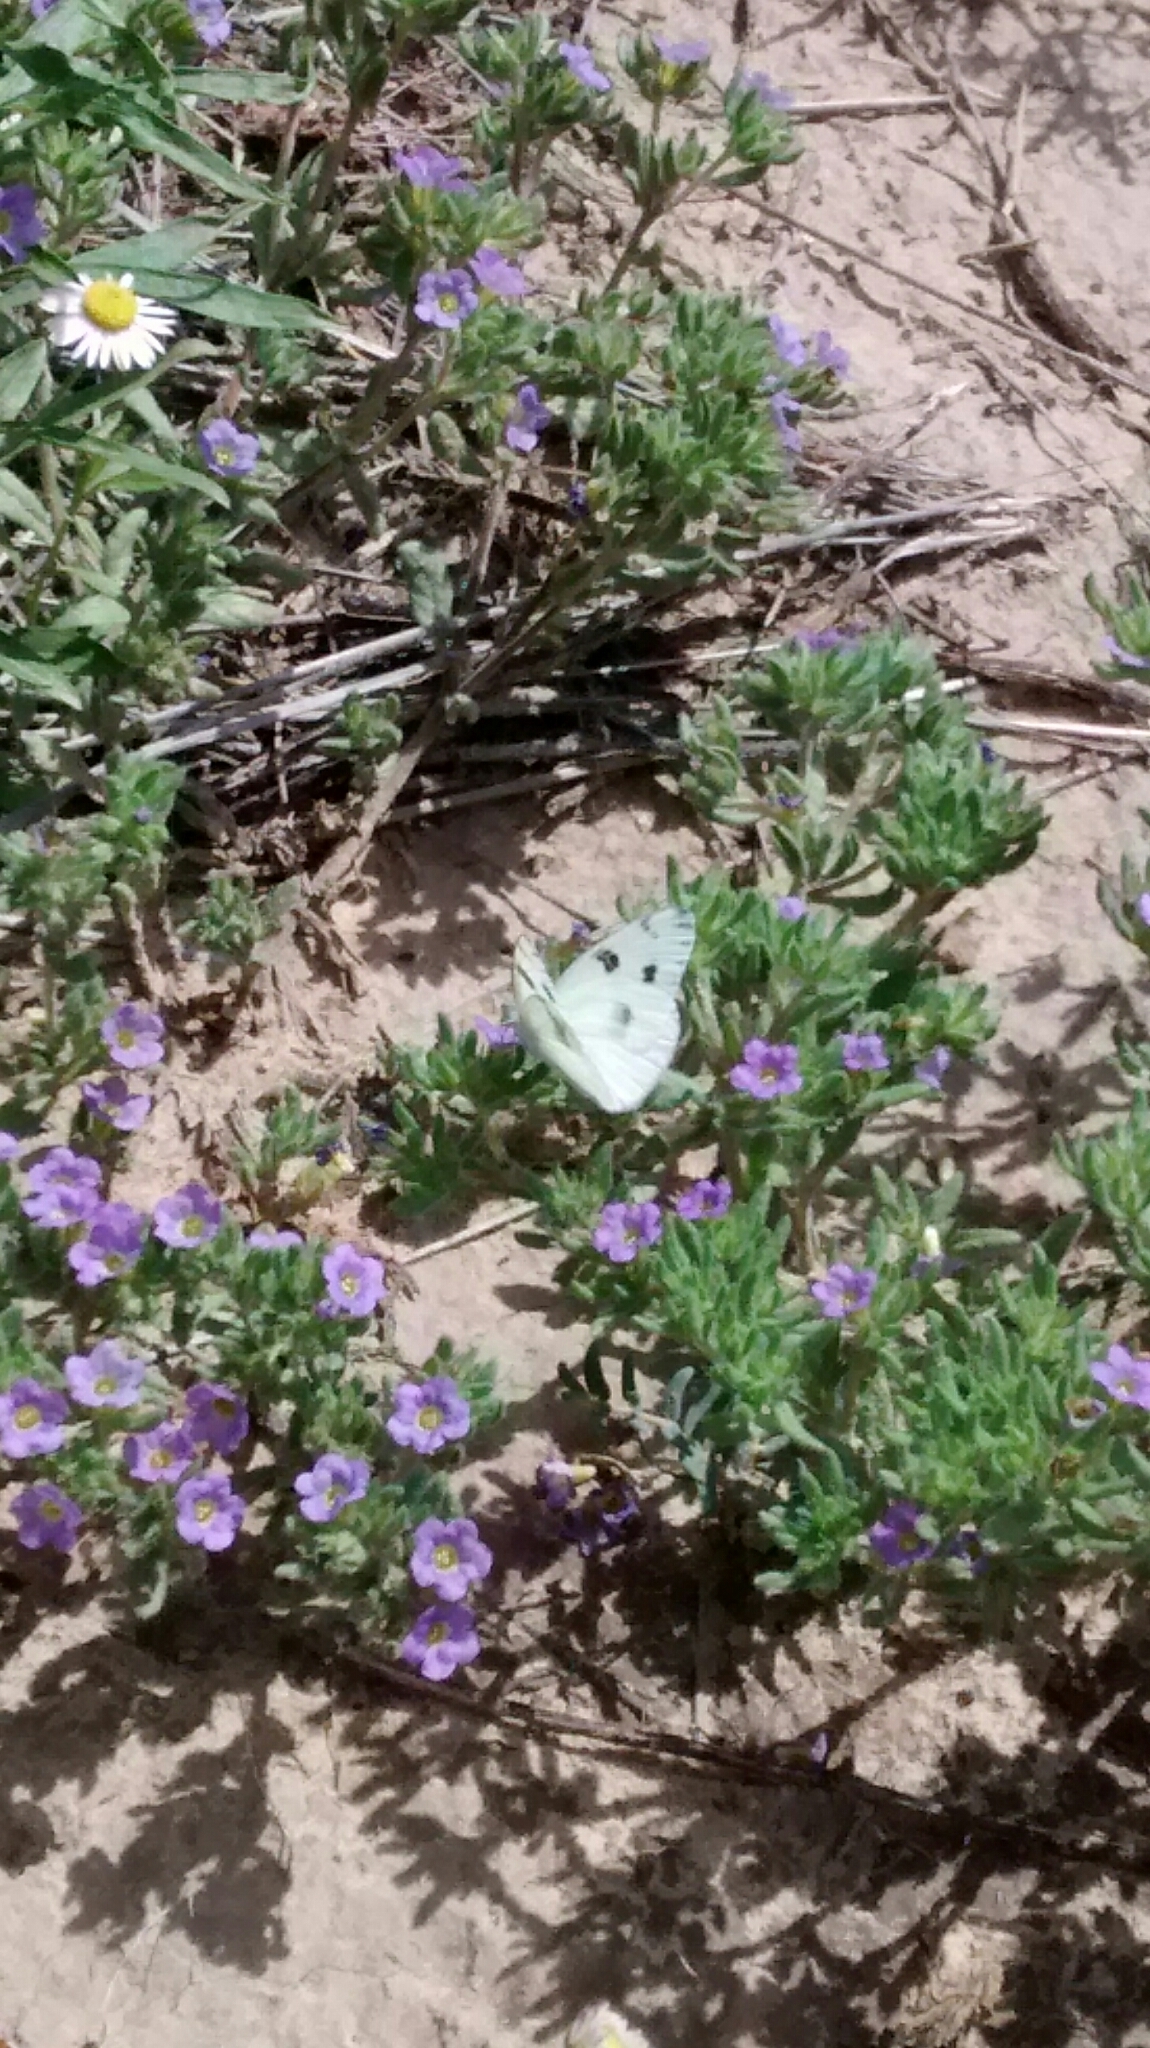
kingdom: Animalia
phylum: Arthropoda
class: Insecta
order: Lepidoptera
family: Pieridae
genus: Pontia
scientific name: Pontia protodice
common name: Checkered white
